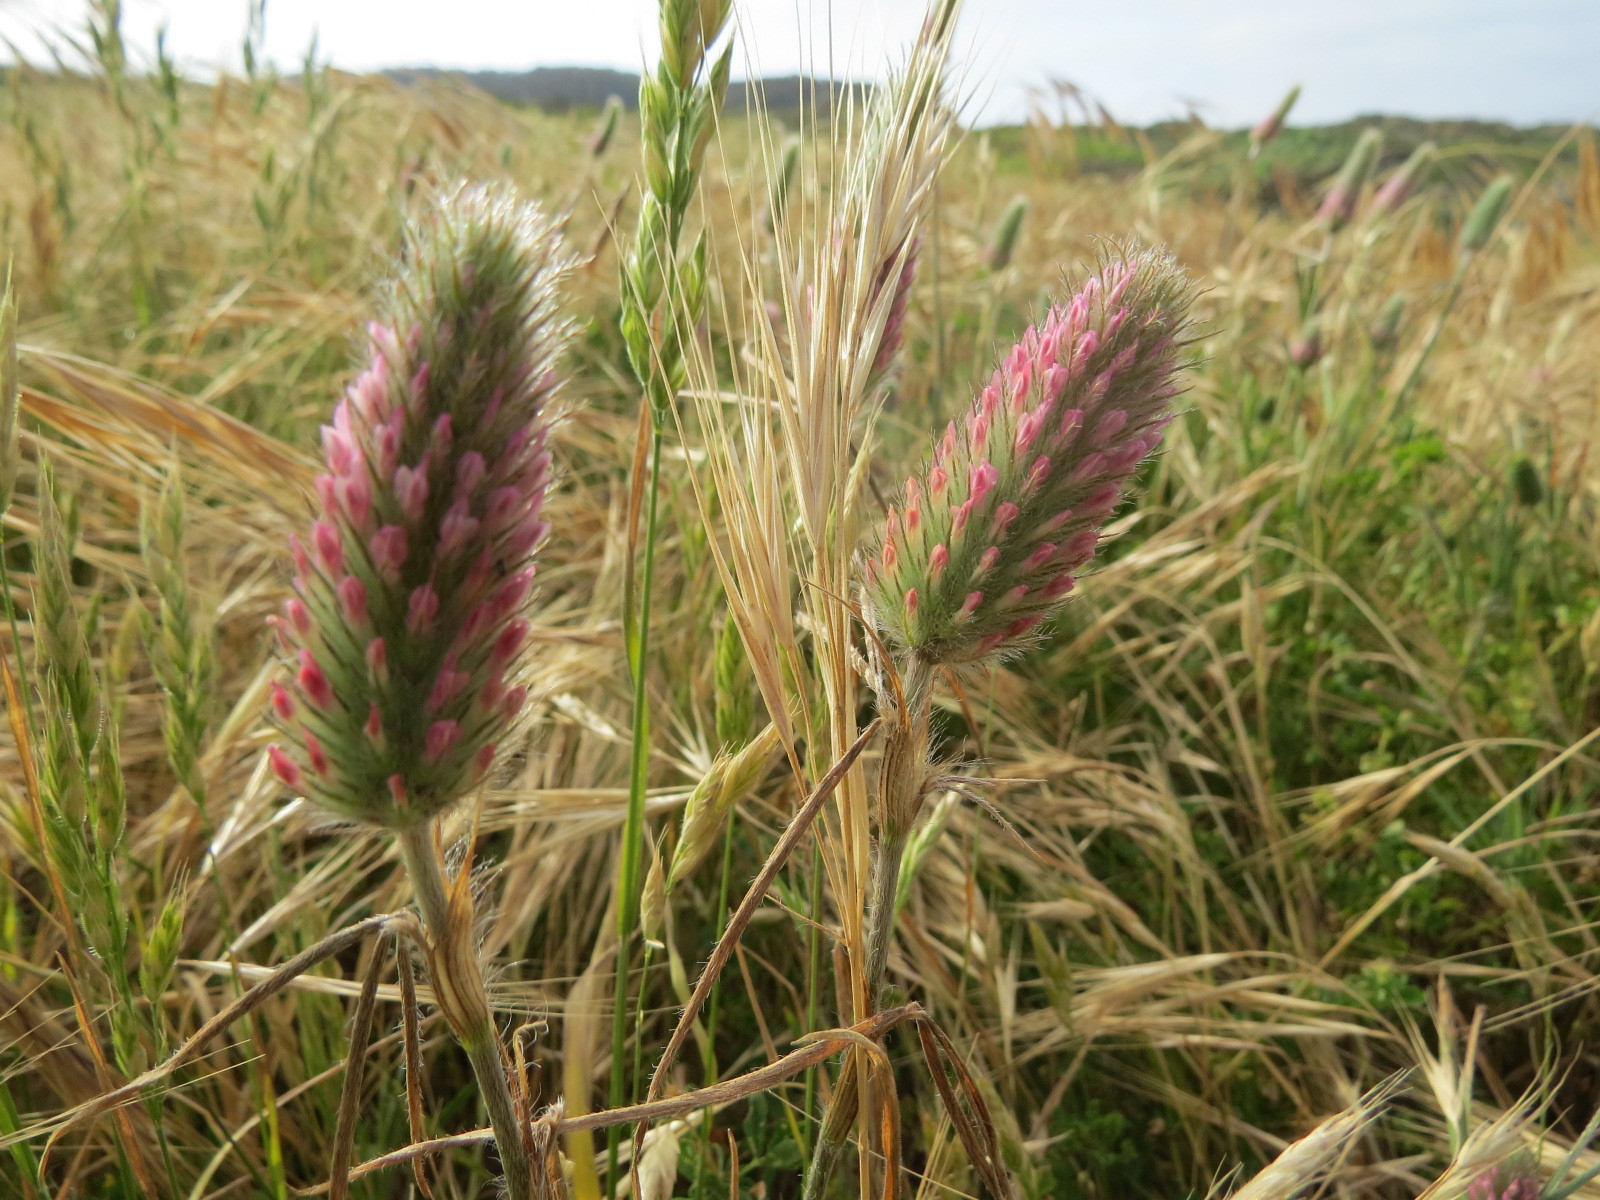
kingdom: Plantae
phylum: Tracheophyta
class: Magnoliopsida
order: Fabales
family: Fabaceae
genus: Trifolium
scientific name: Trifolium angustifolium
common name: Narrow clover
